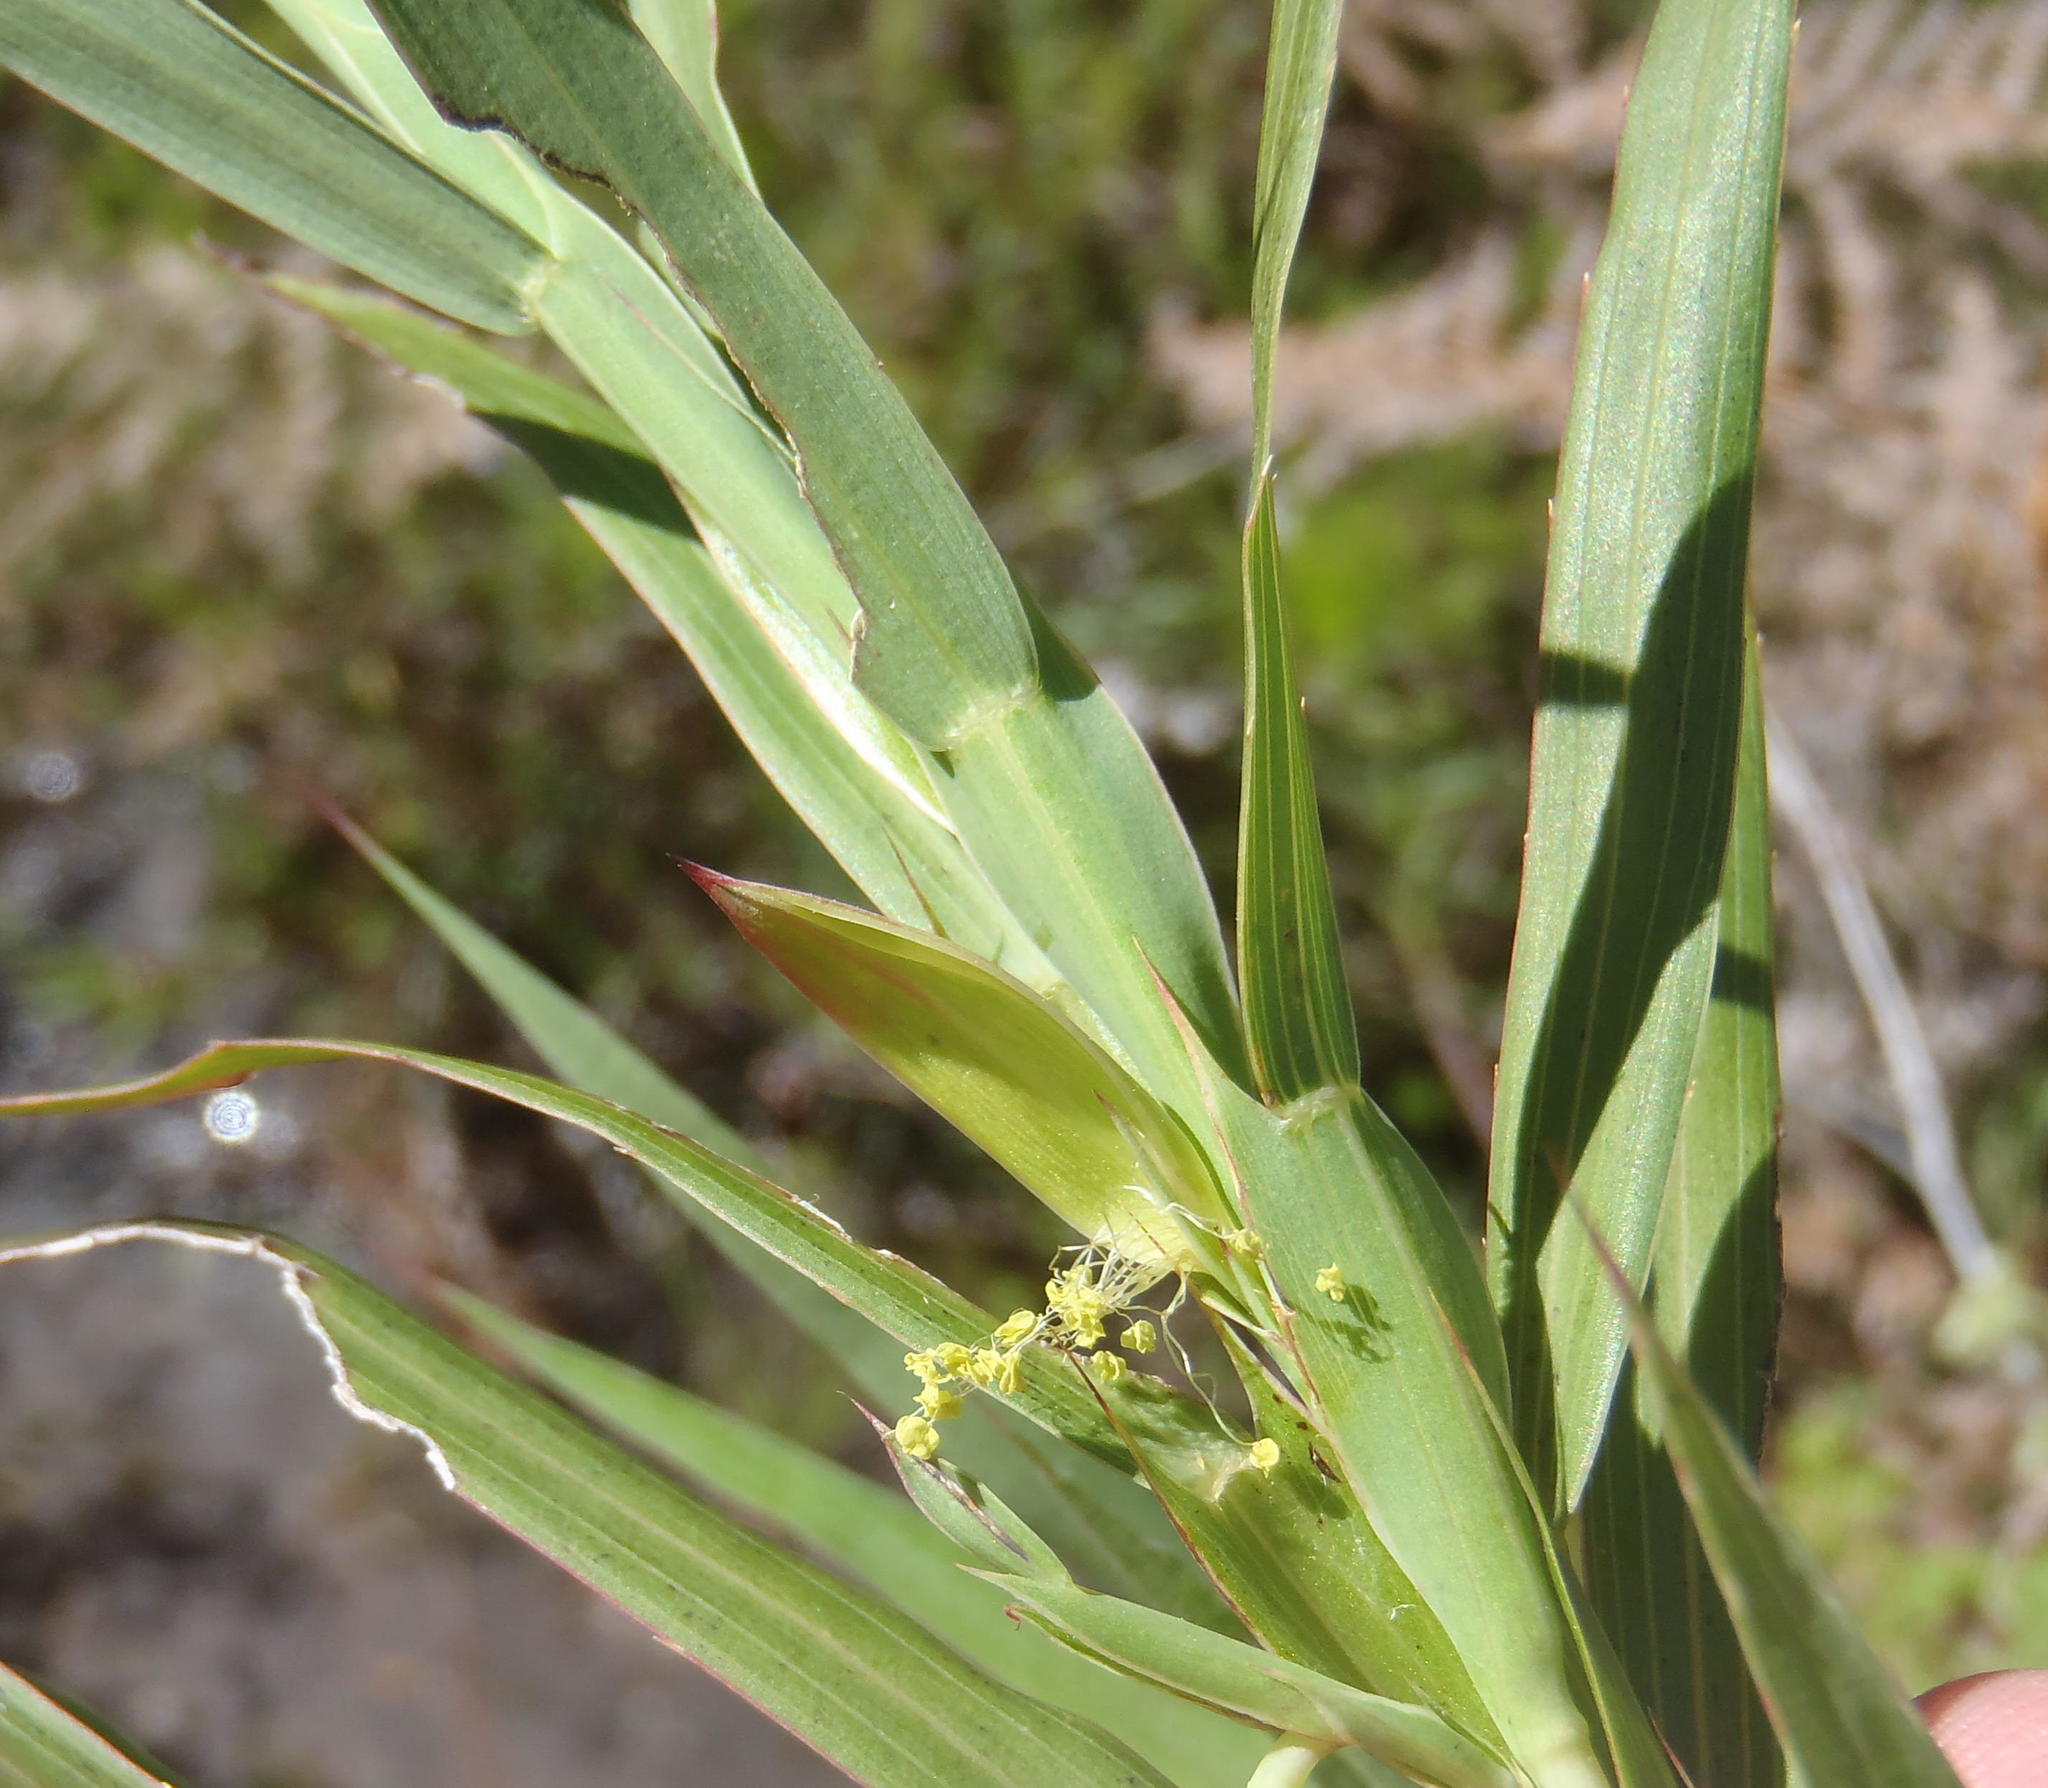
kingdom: Plantae
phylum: Tracheophyta
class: Magnoliopsida
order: Rosales
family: Rosaceae
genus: Cliffortia
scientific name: Cliffortia graminea
